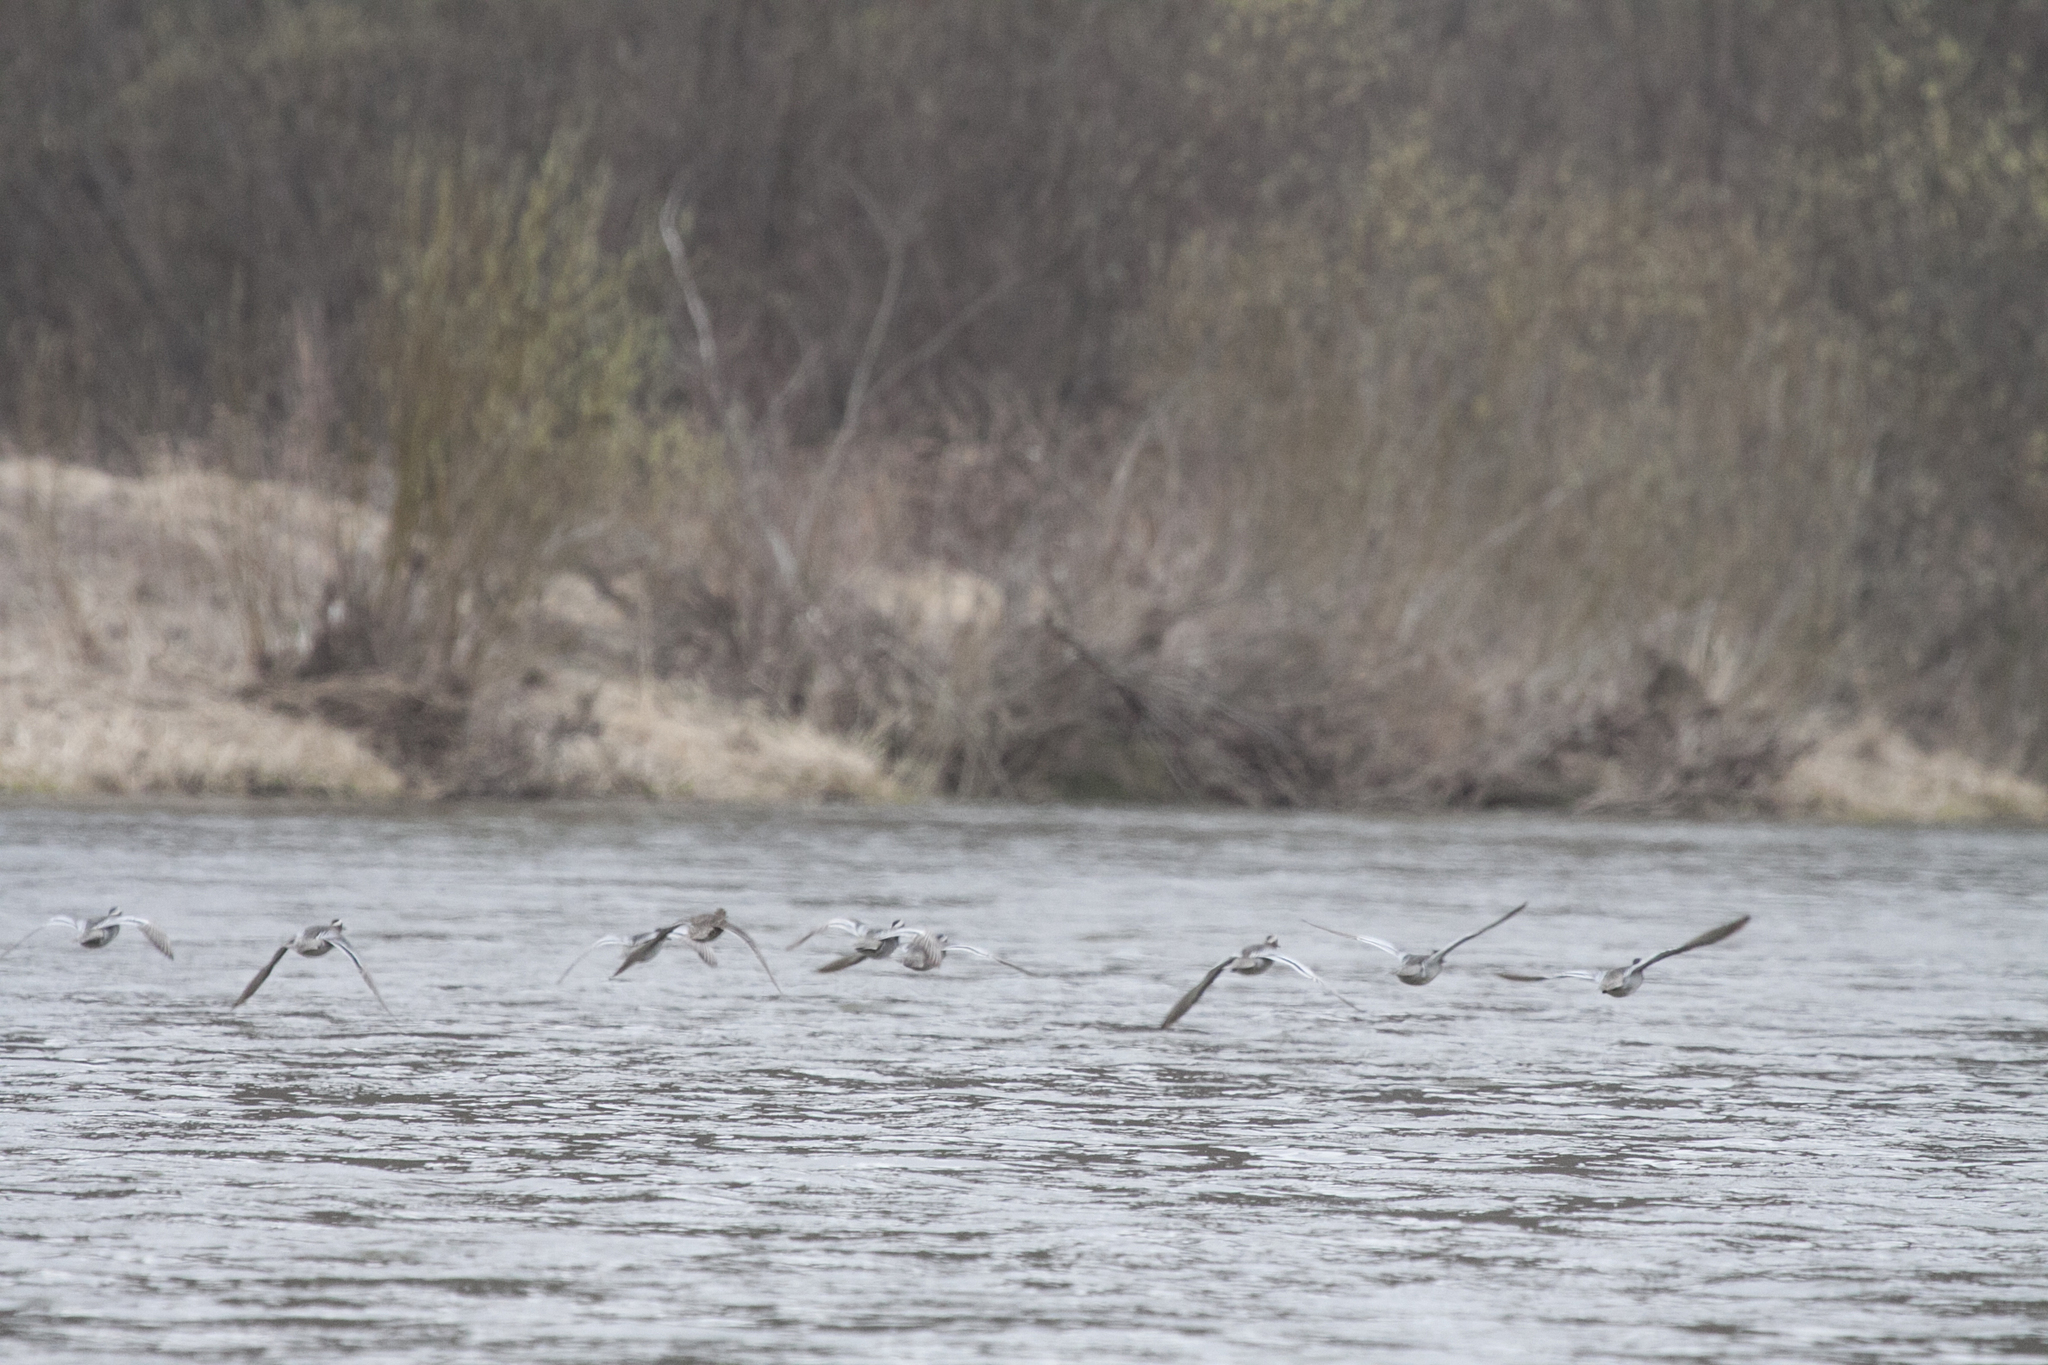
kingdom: Animalia
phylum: Chordata
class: Aves
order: Anseriformes
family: Anatidae
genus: Spatula
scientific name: Spatula querquedula
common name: Garganey
